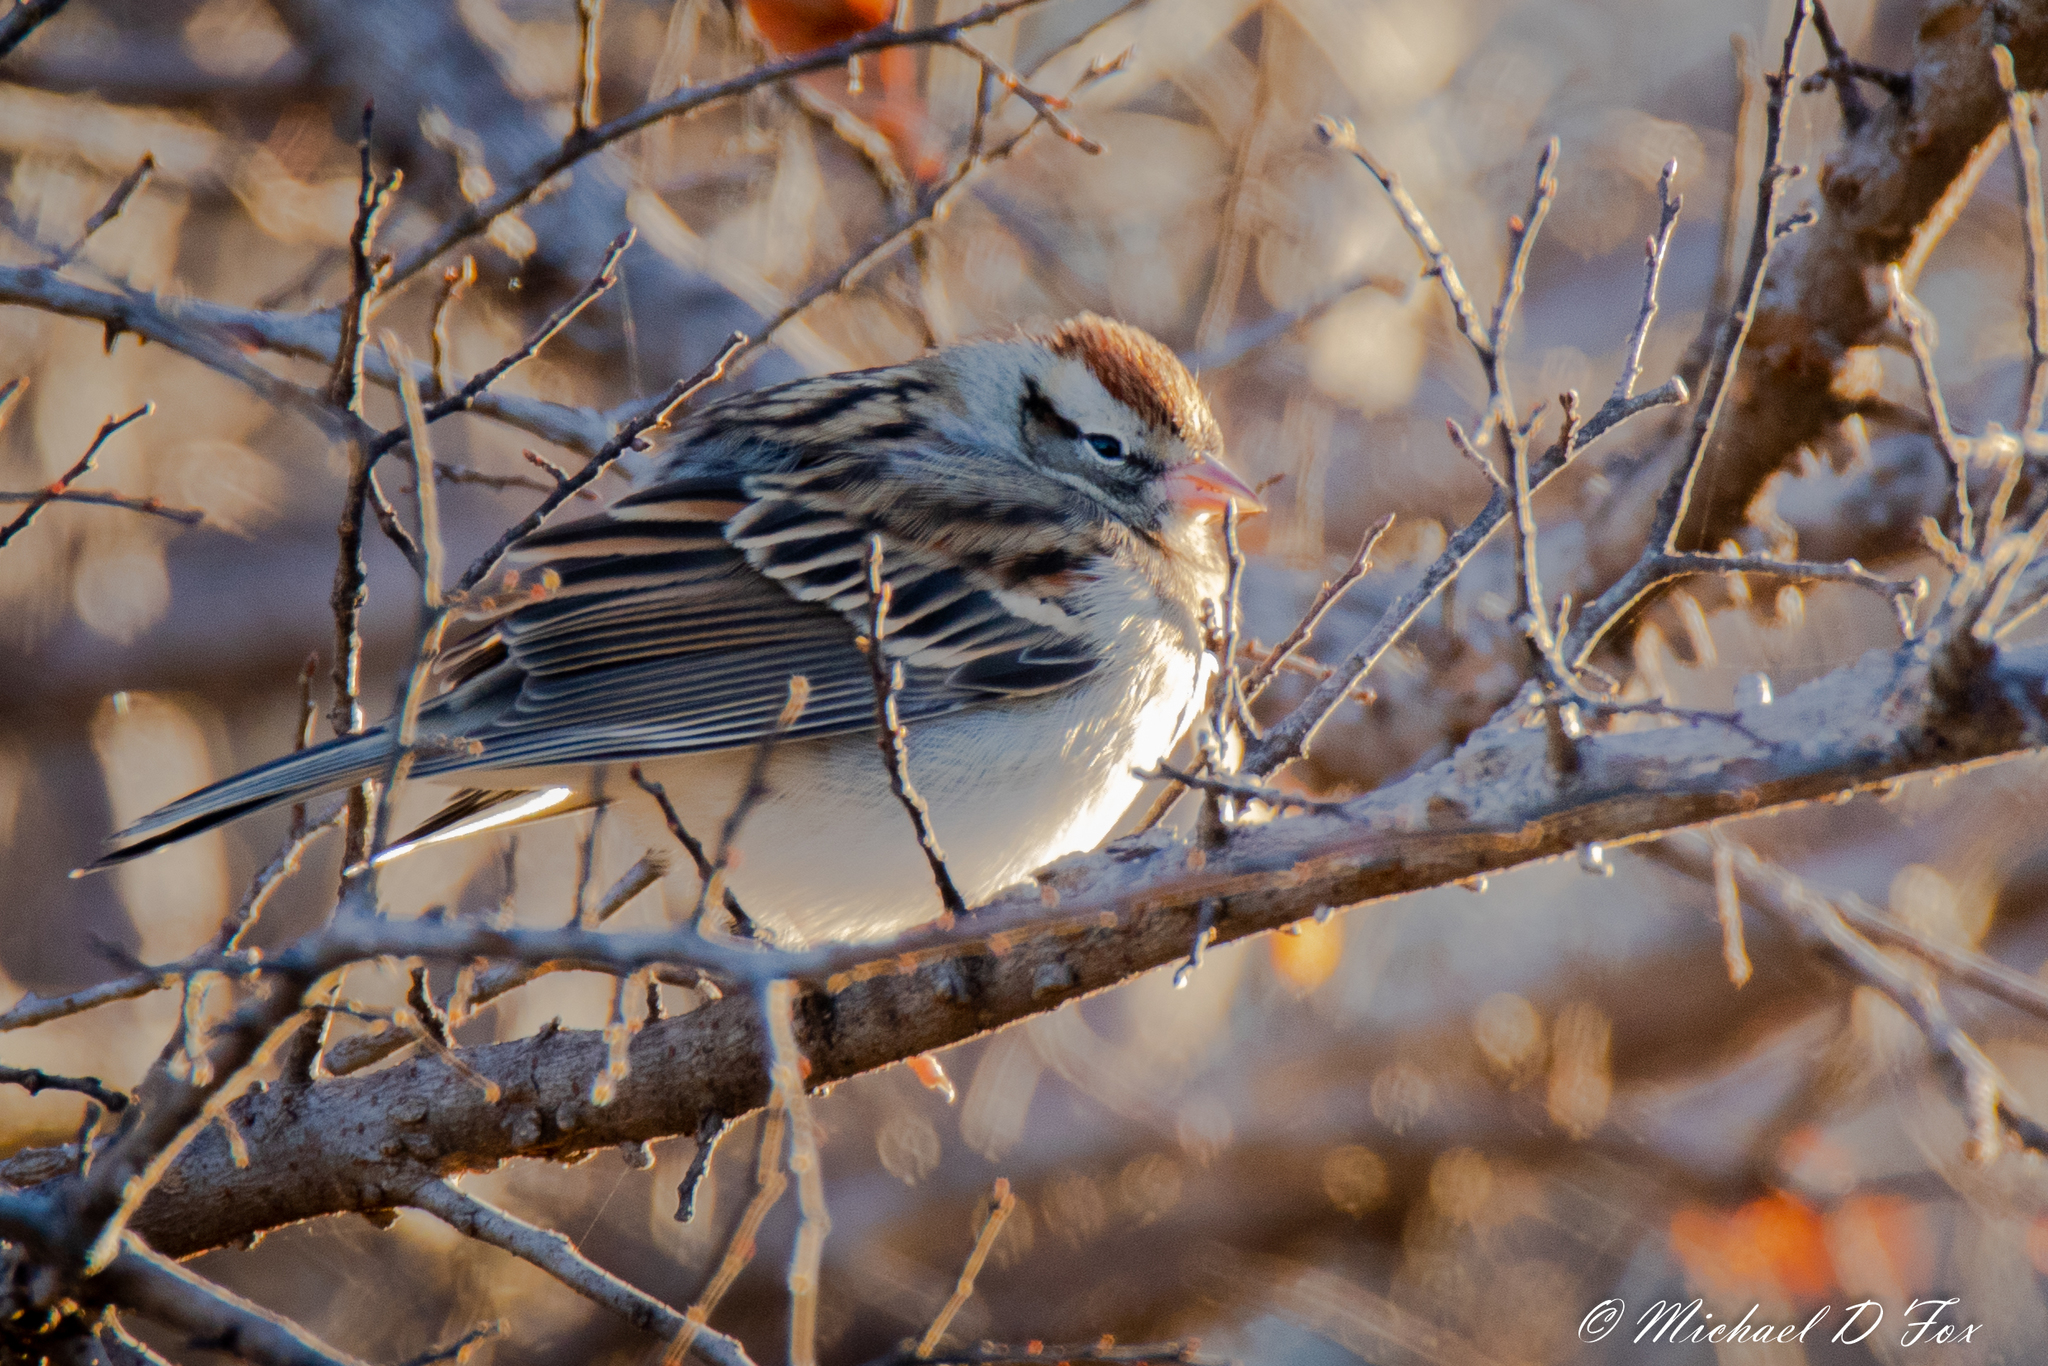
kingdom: Animalia
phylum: Chordata
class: Aves
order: Passeriformes
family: Passerellidae
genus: Spizella
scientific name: Spizella passerina
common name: Chipping sparrow
